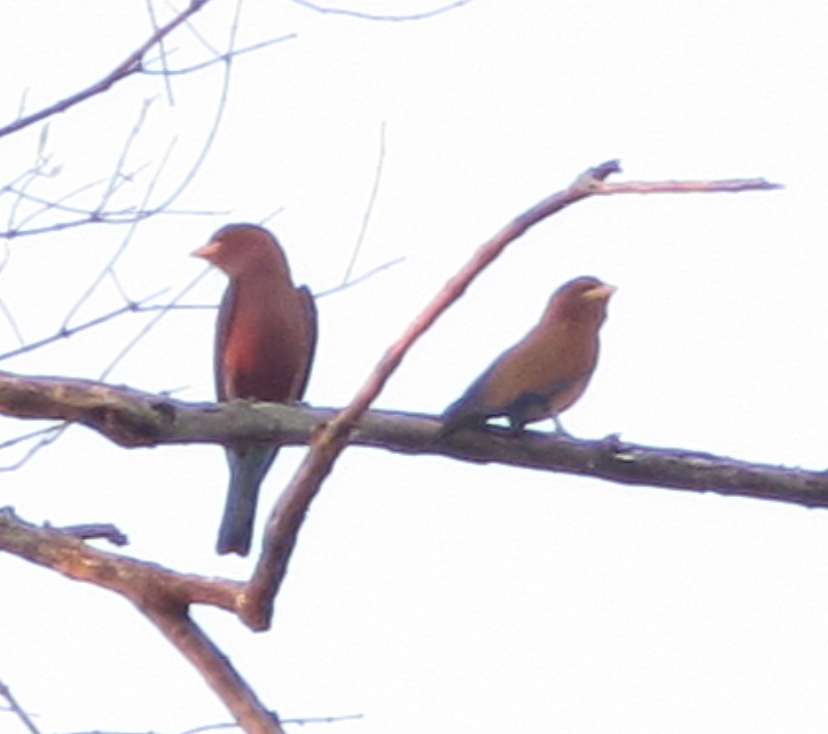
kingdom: Animalia
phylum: Chordata
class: Aves
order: Coraciiformes
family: Coraciidae
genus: Eurystomus
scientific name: Eurystomus glaucurus
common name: Broad-billed roller
